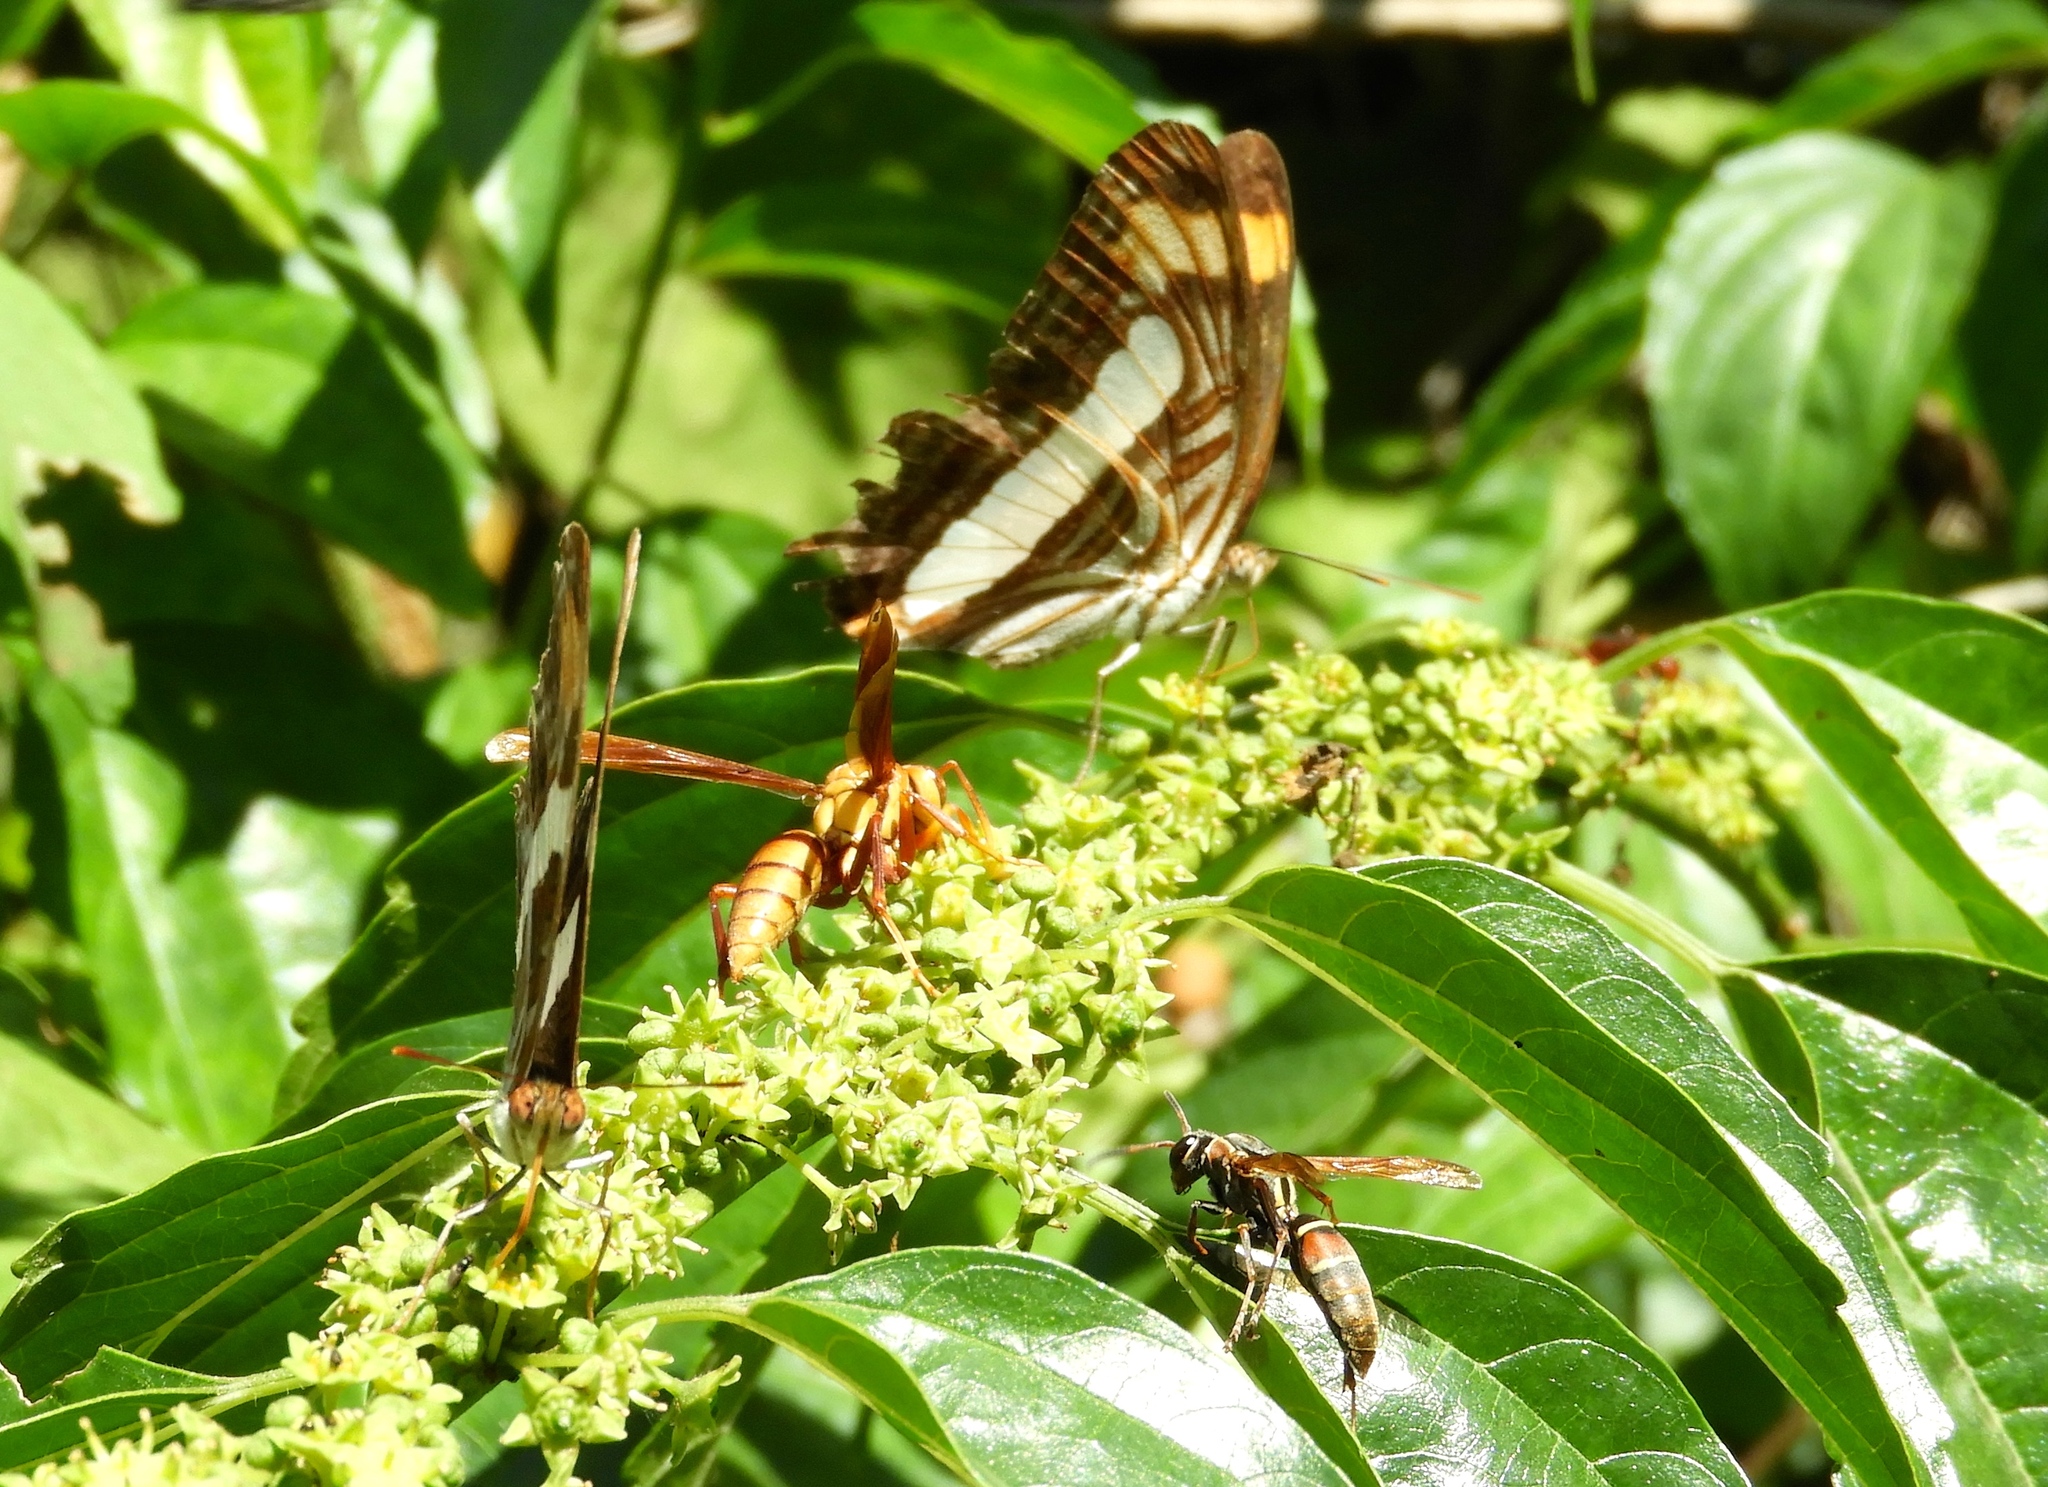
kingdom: Animalia
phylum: Arthropoda
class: Insecta
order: Hymenoptera
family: Eumenidae
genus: Polistes
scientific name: Polistes pacificus
